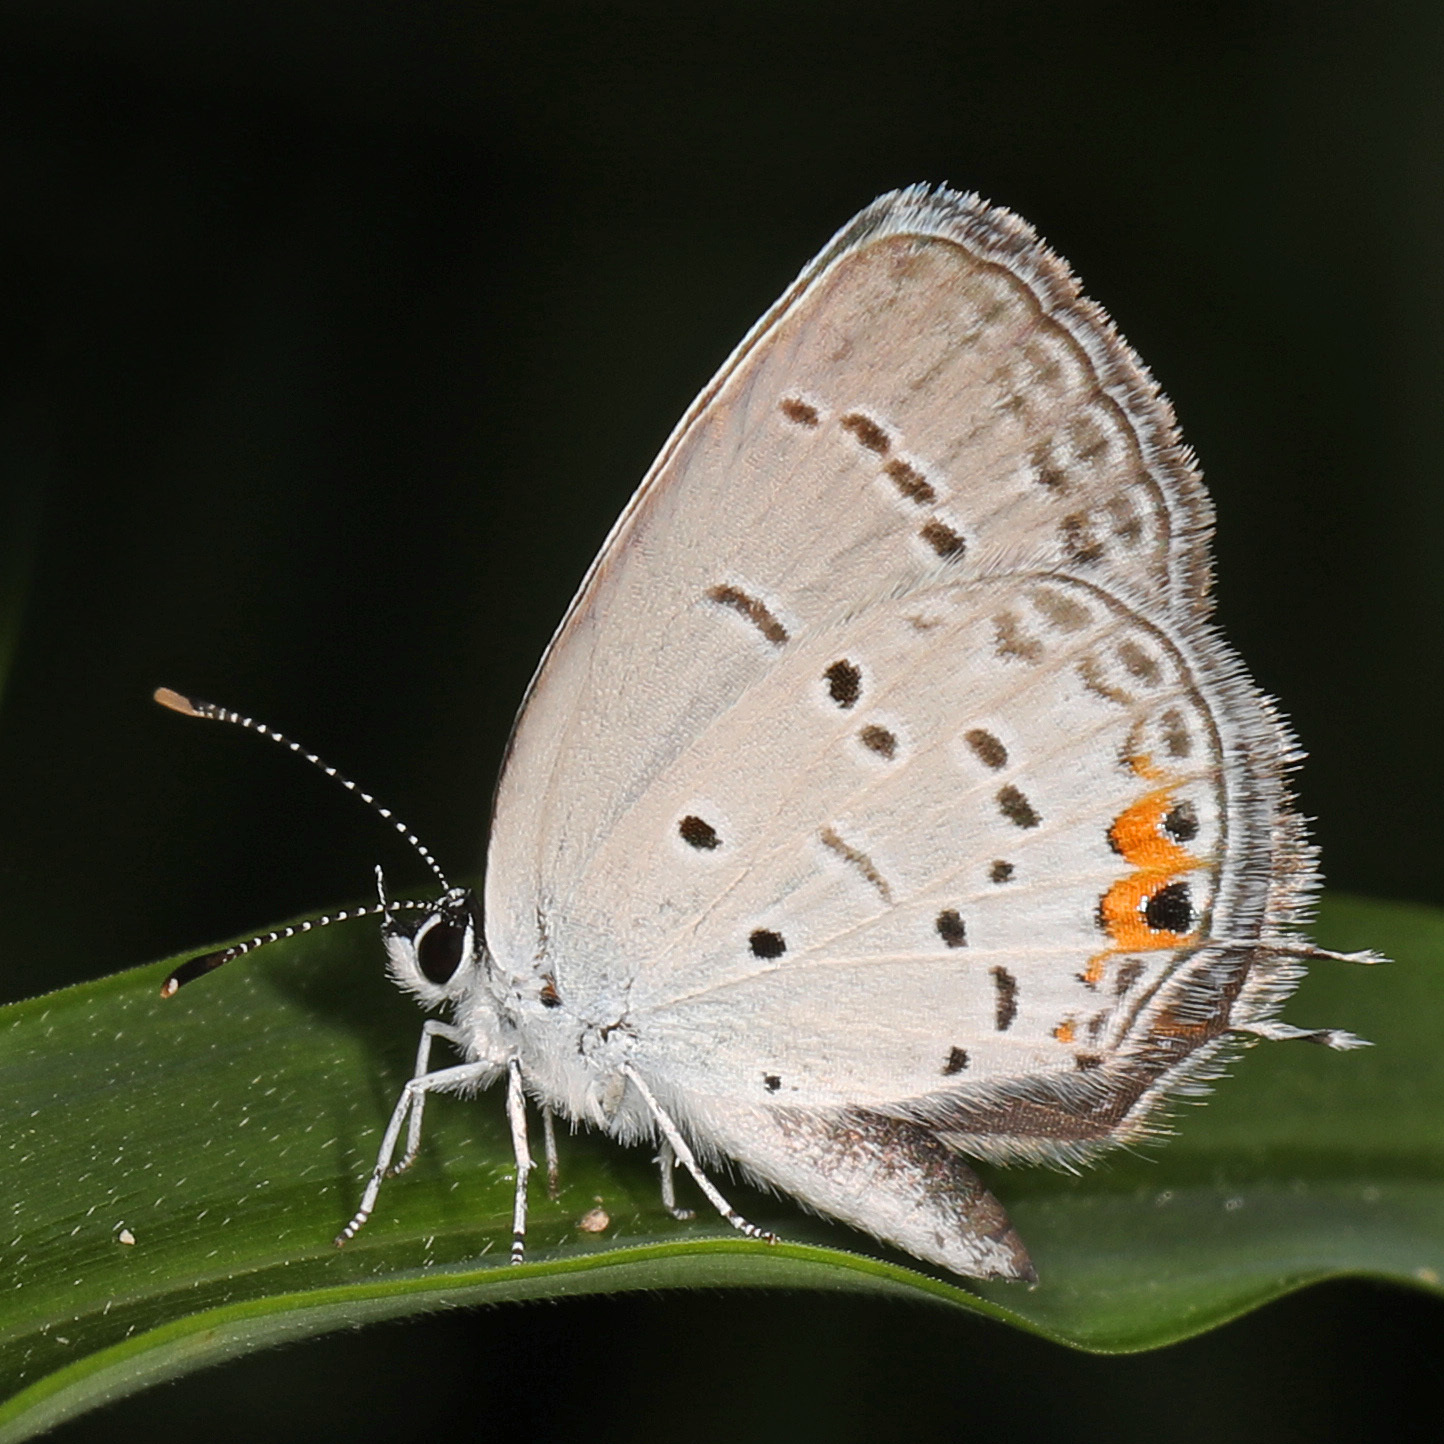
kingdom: Animalia
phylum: Arthropoda
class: Insecta
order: Lepidoptera
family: Lycaenidae
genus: Elkalyce
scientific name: Elkalyce comyntas
